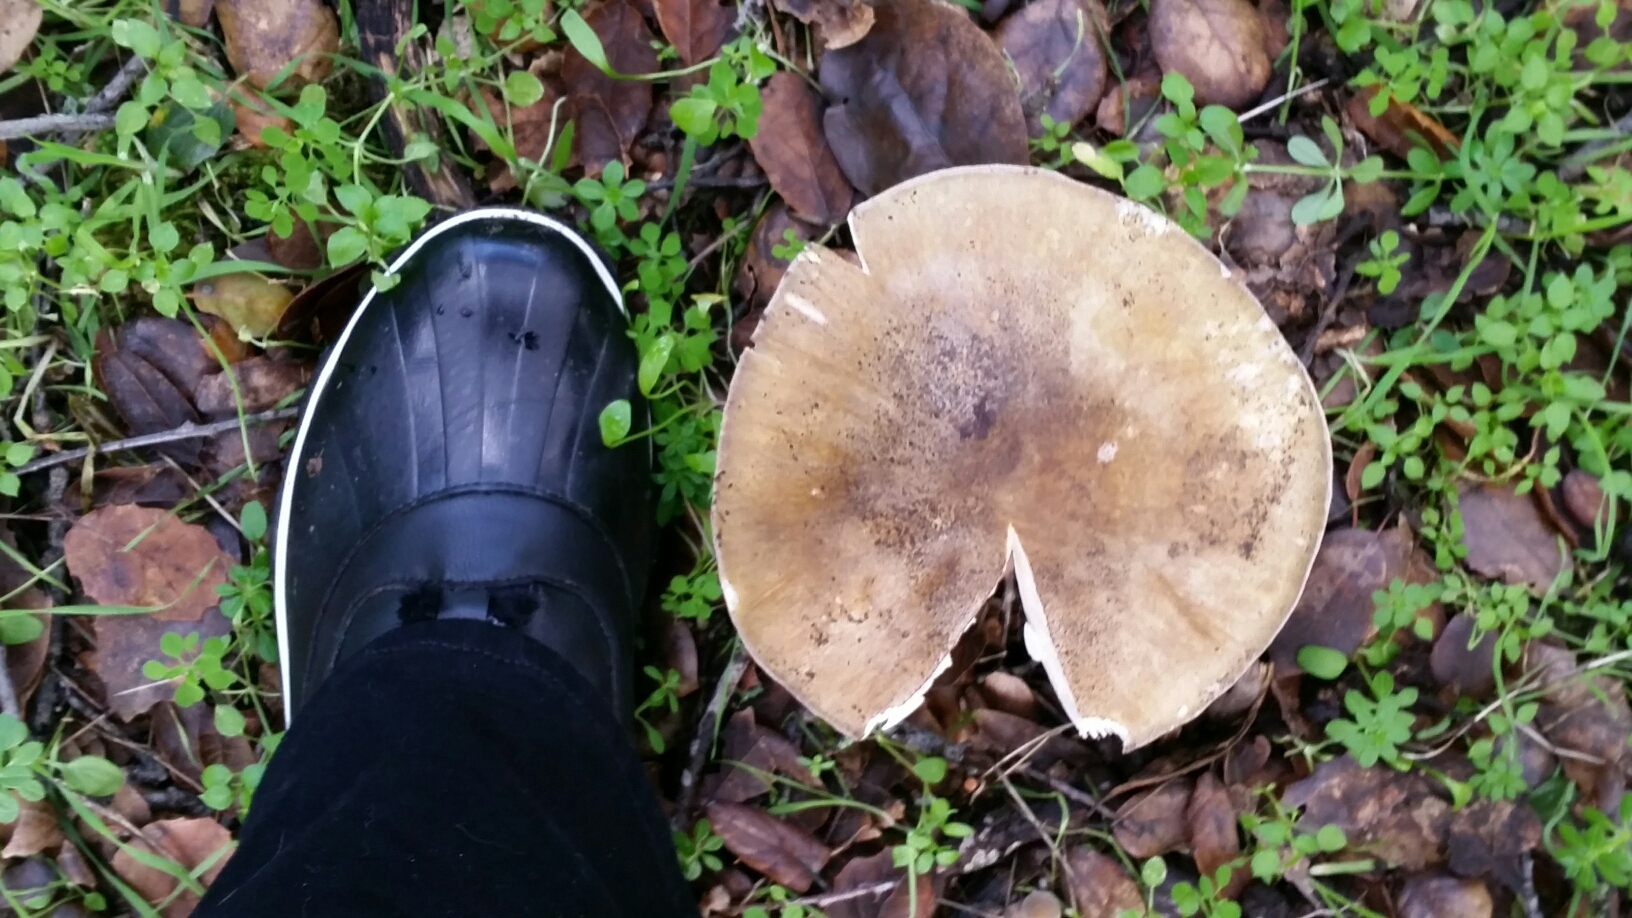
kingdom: Fungi
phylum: Basidiomycota
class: Agaricomycetes
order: Agaricales
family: Amanitaceae
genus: Amanita
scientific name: Amanita phalloides
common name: Death cap
